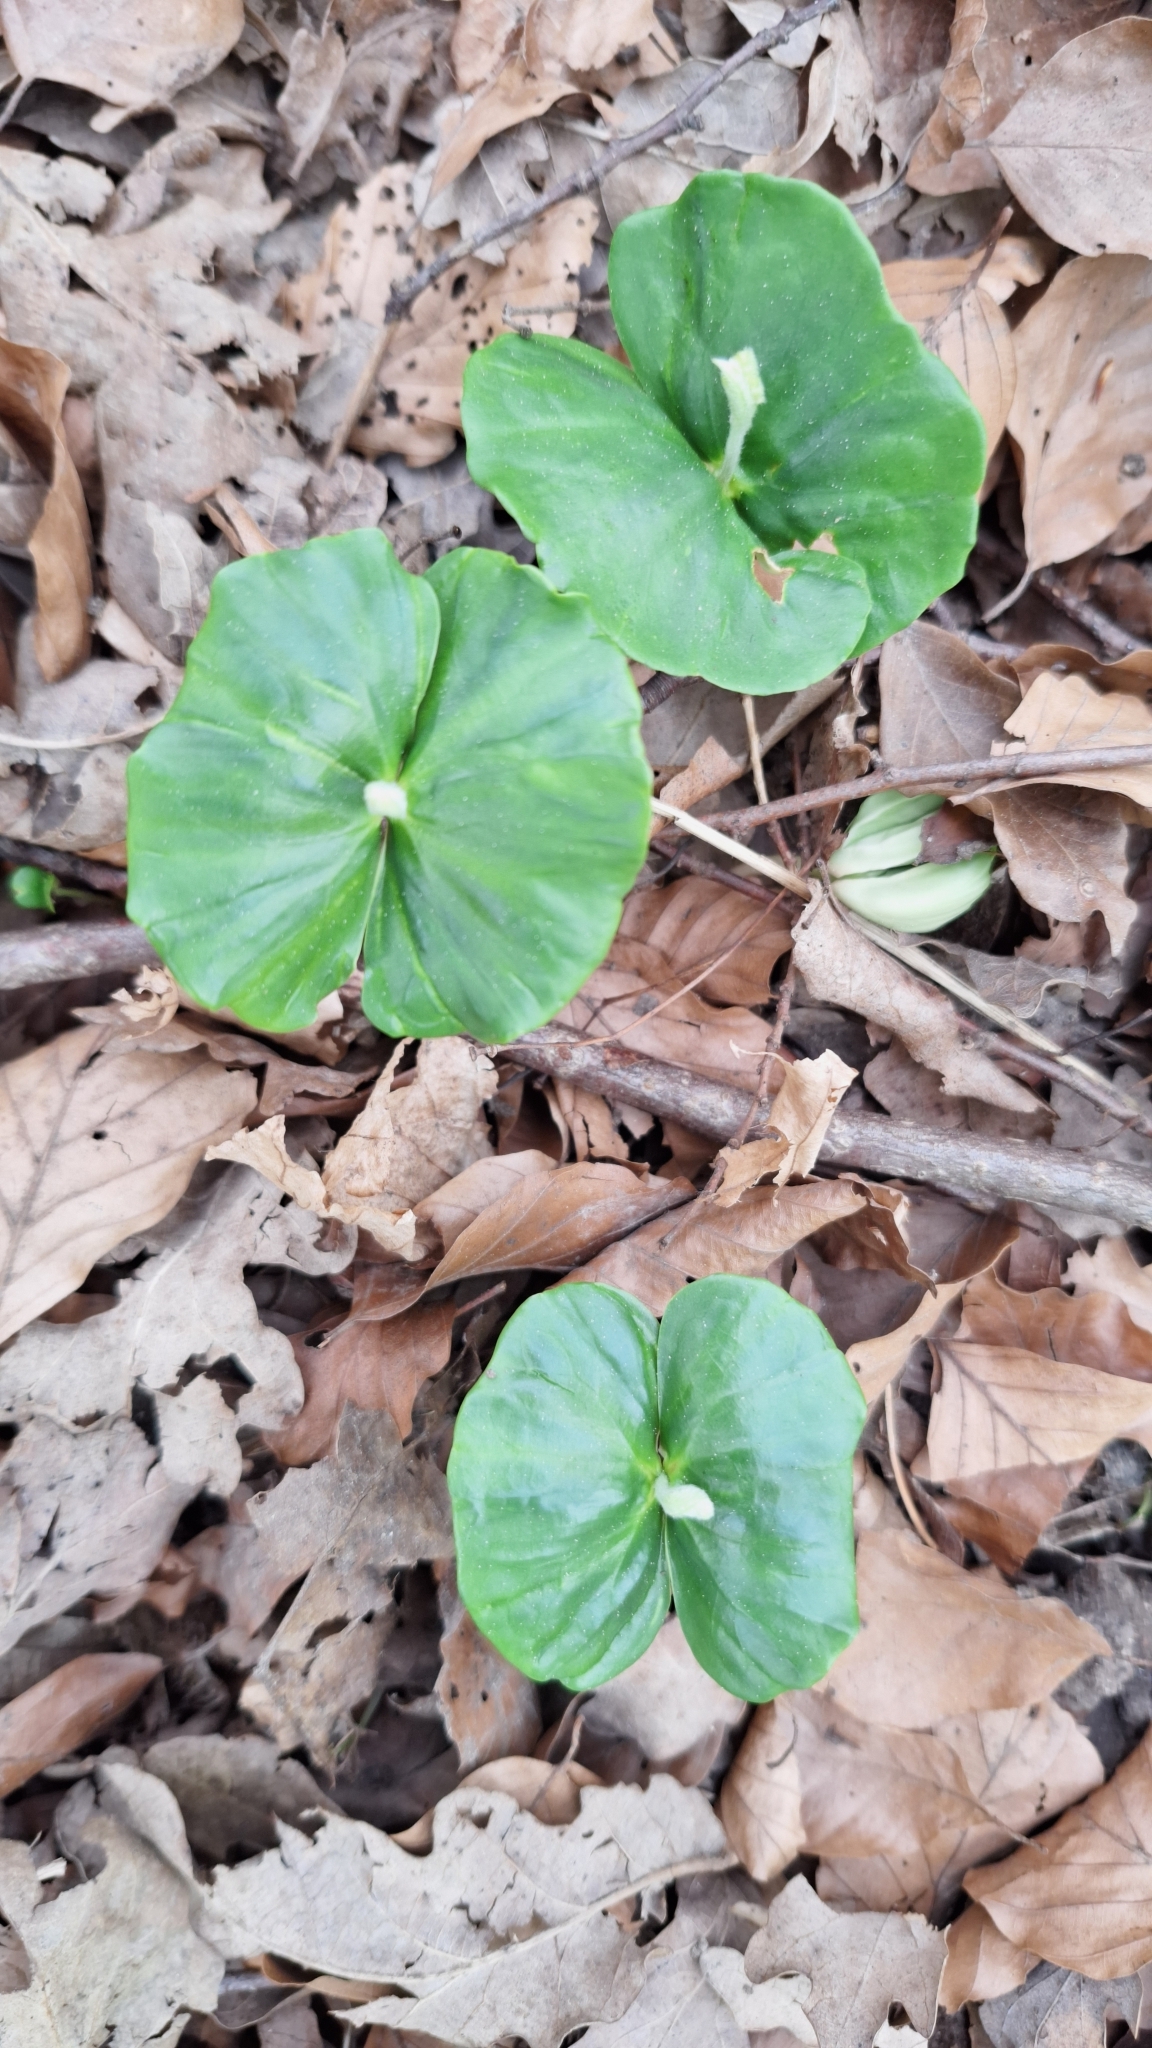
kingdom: Plantae
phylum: Tracheophyta
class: Magnoliopsida
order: Fagales
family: Fagaceae
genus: Fagus
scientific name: Fagus sylvatica
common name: Beech
